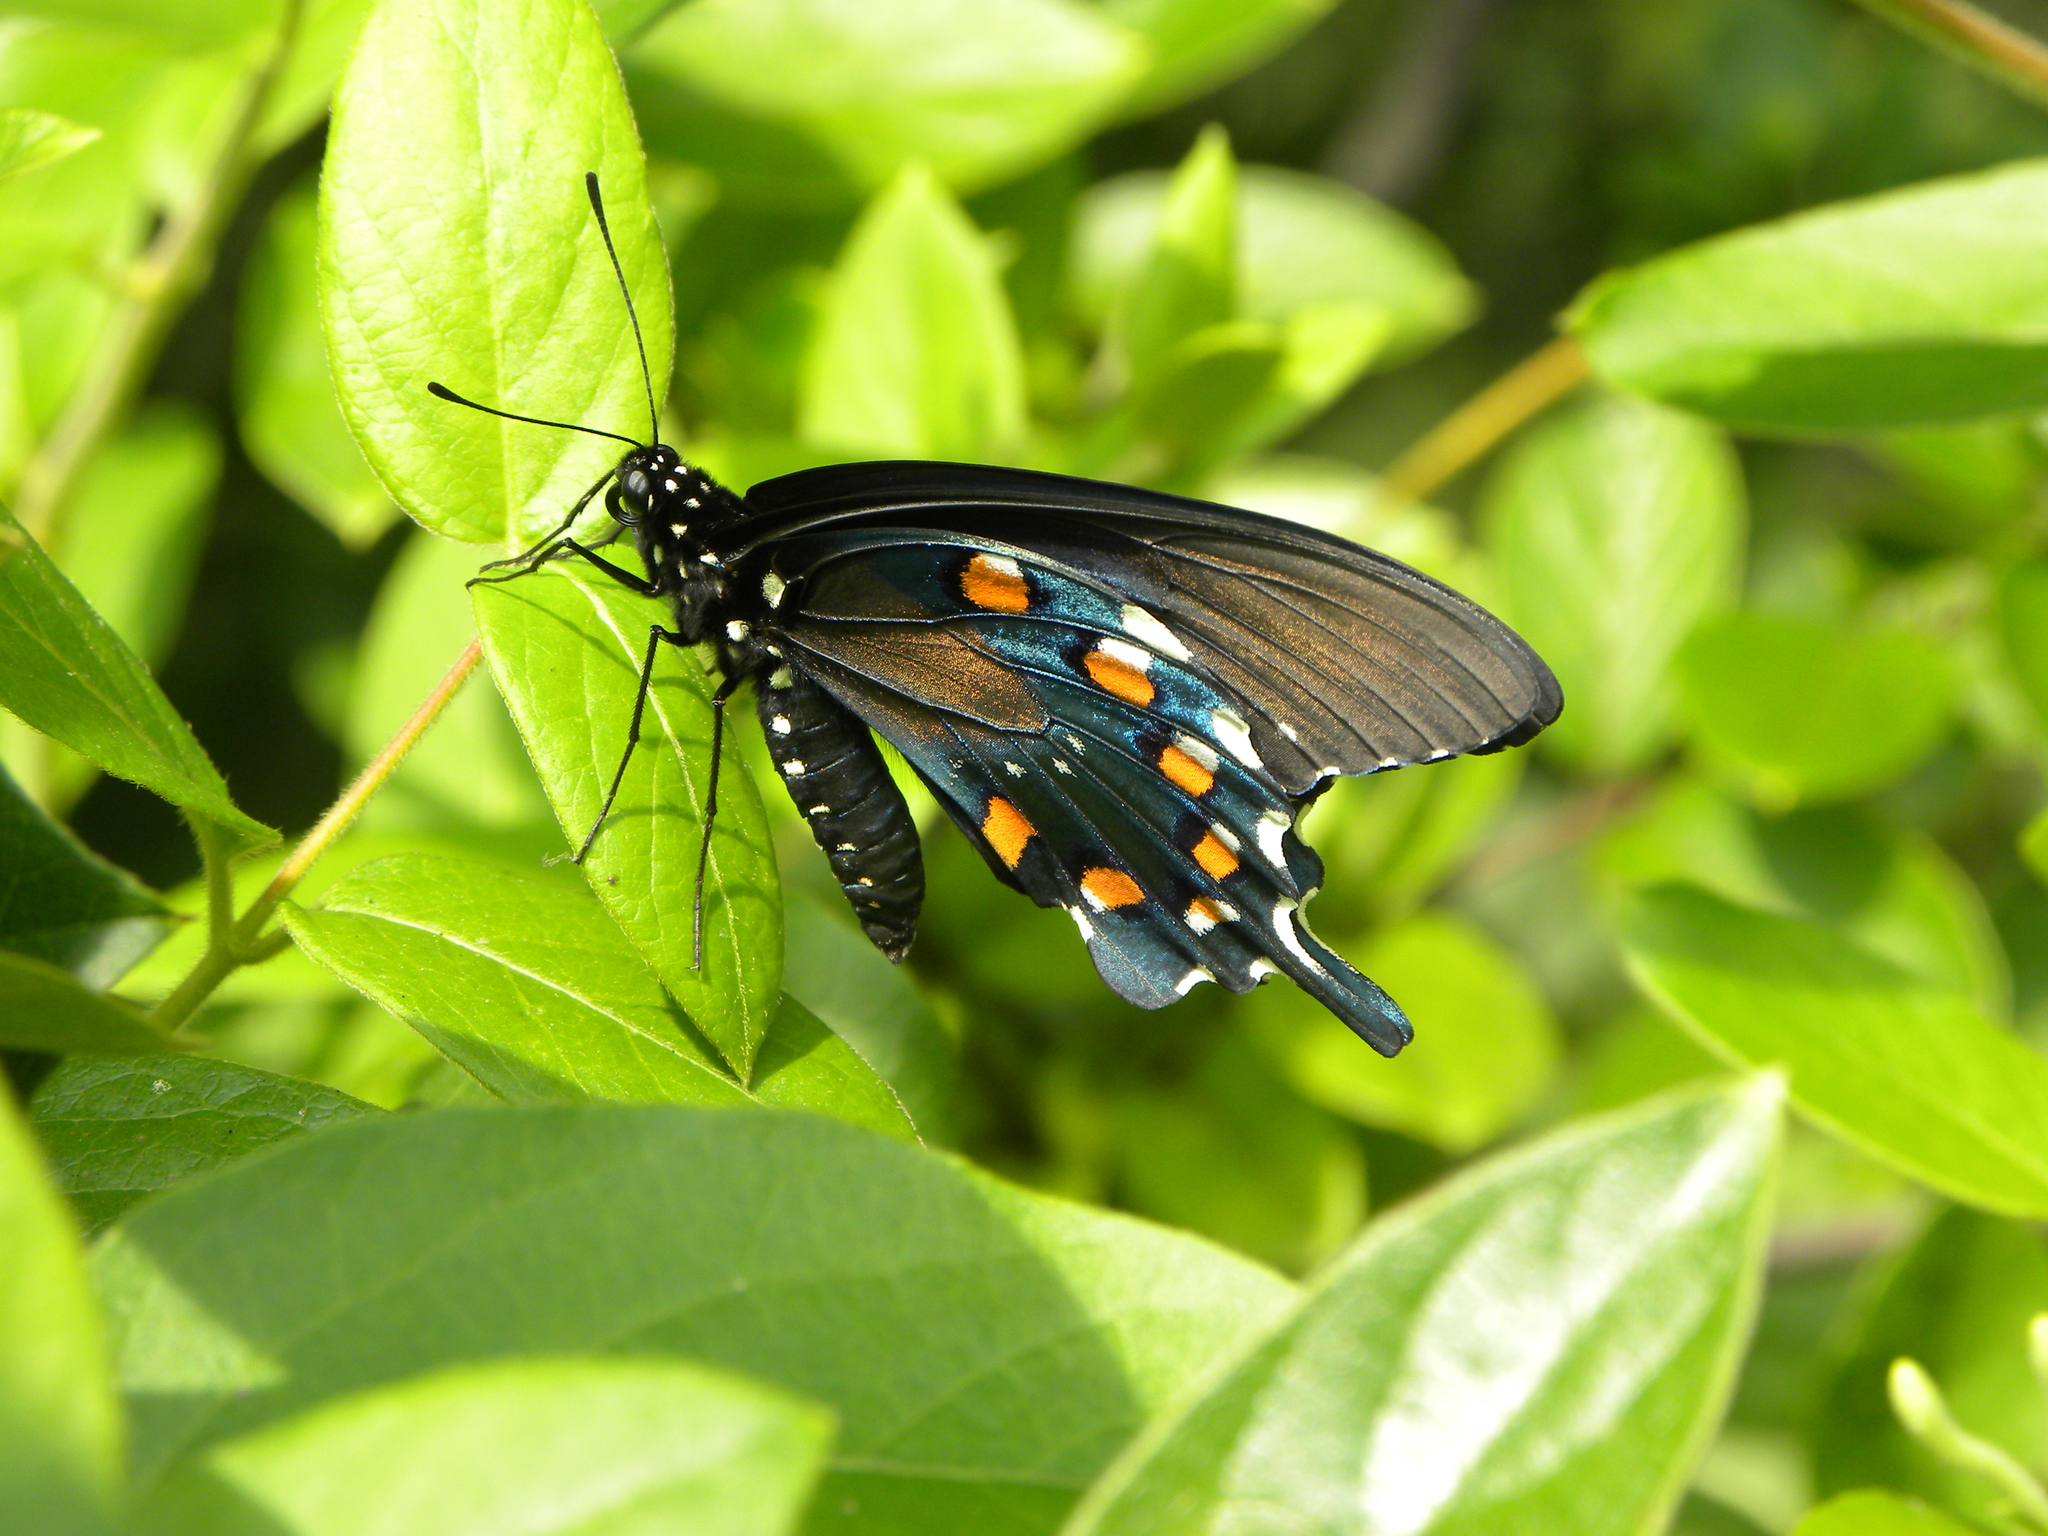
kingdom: Animalia
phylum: Arthropoda
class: Insecta
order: Lepidoptera
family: Papilionidae
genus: Battus
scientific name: Battus philenor
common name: Pipevine swallowtail
